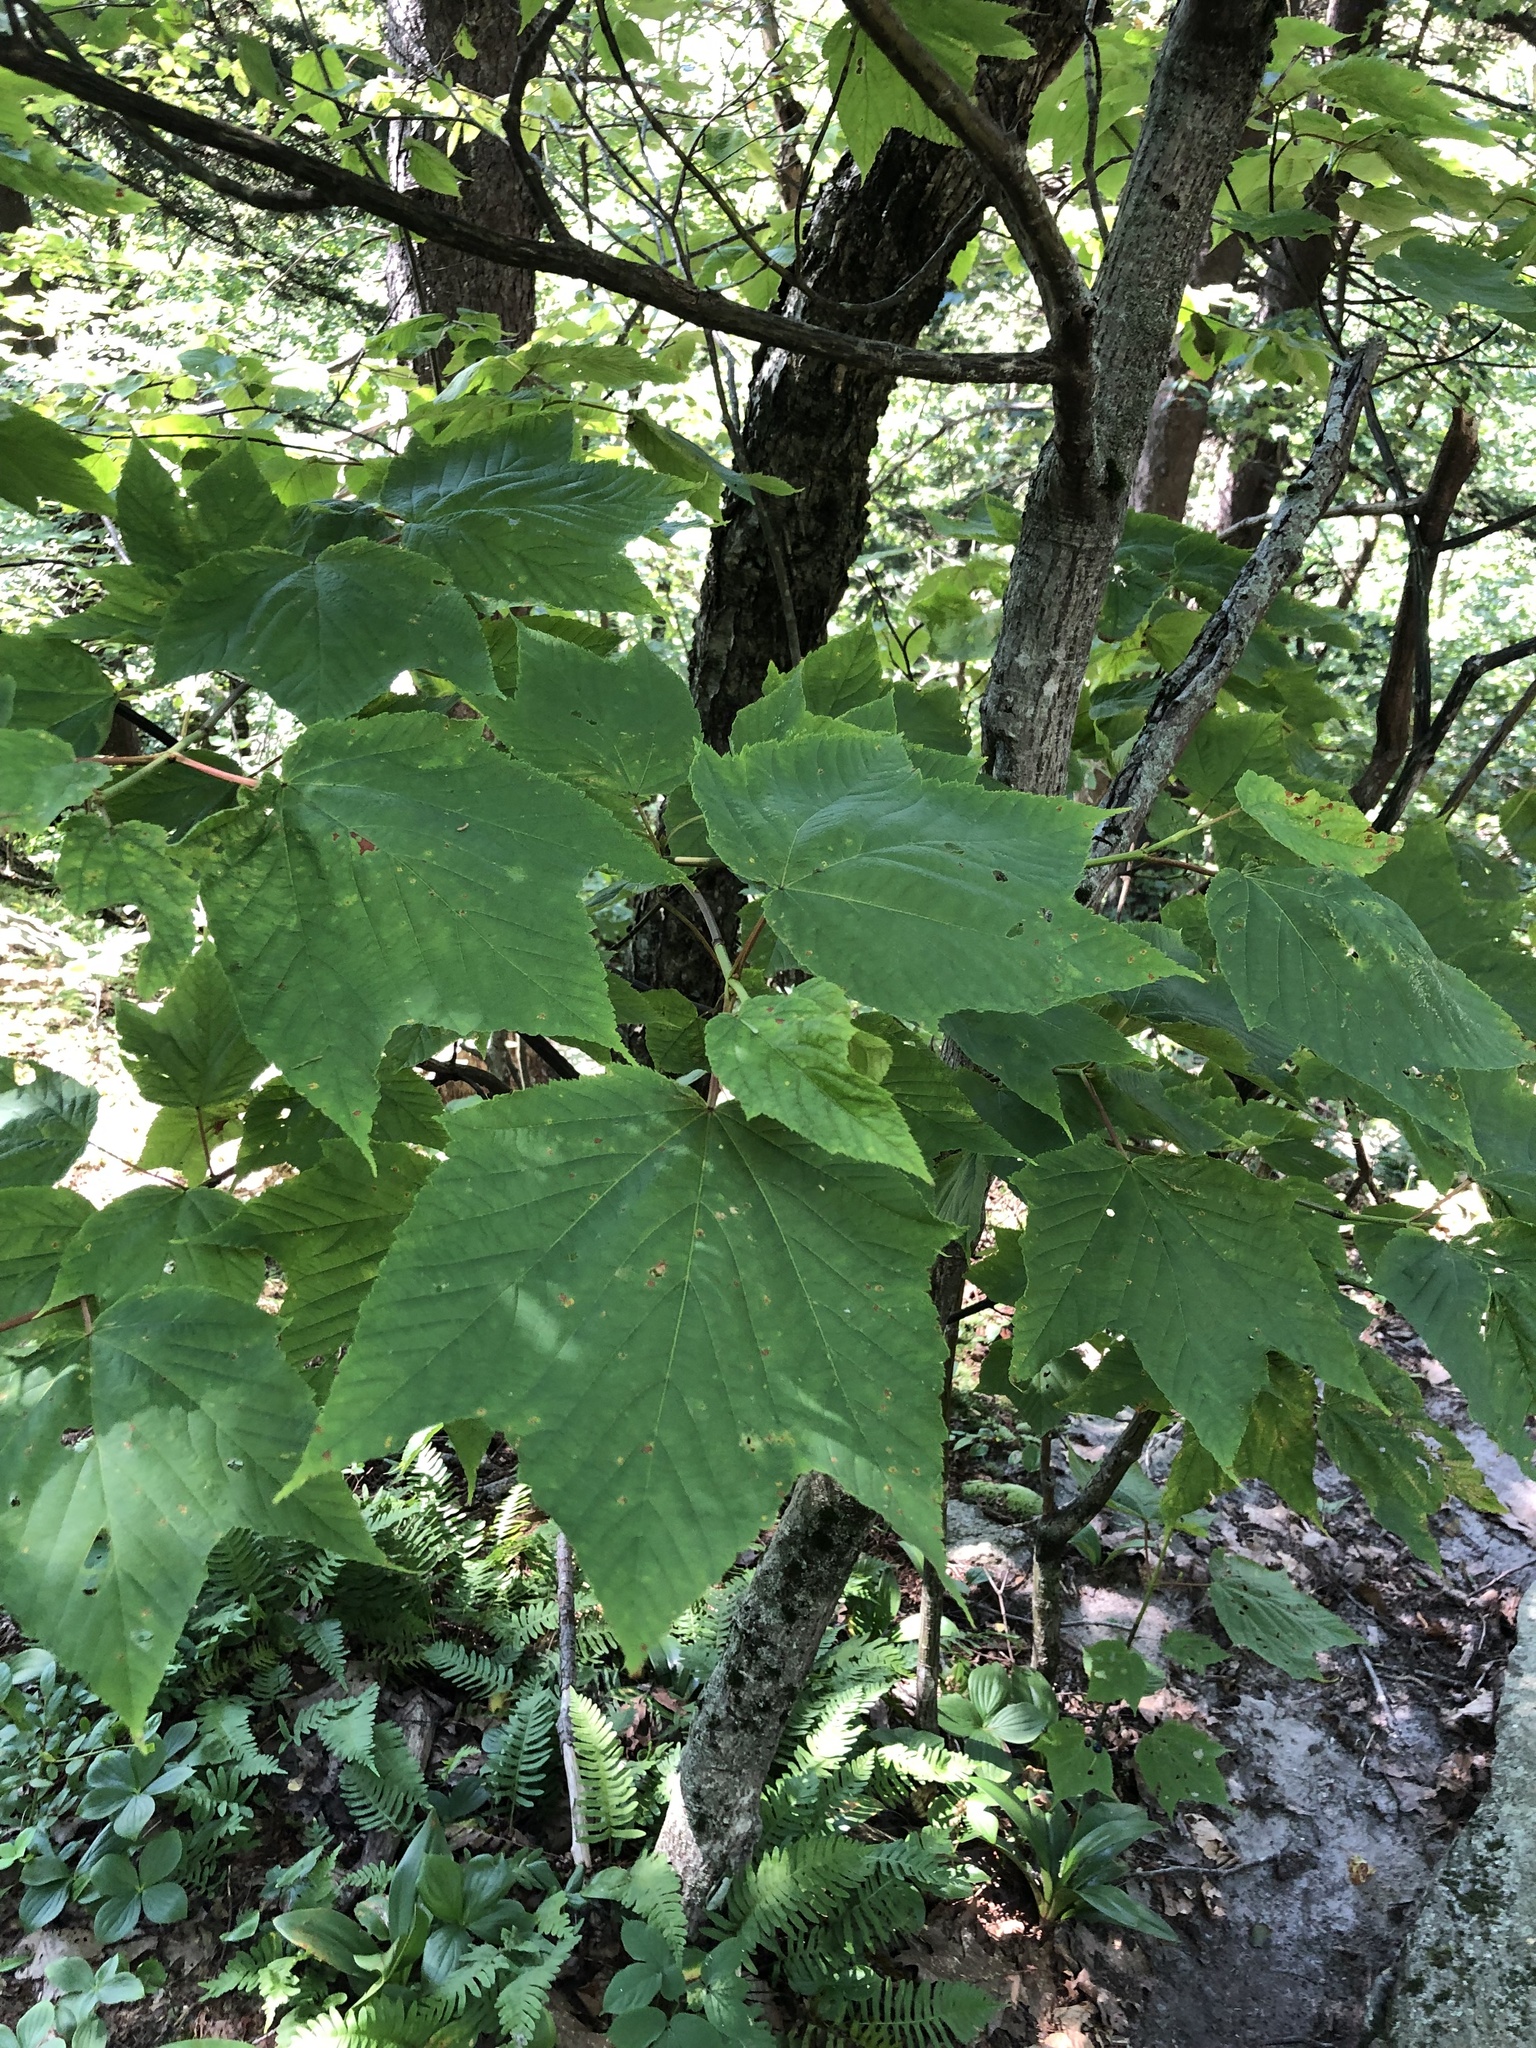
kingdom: Plantae
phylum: Tracheophyta
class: Magnoliopsida
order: Sapindales
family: Sapindaceae
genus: Acer
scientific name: Acer pensylvanicum
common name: Moosewood
